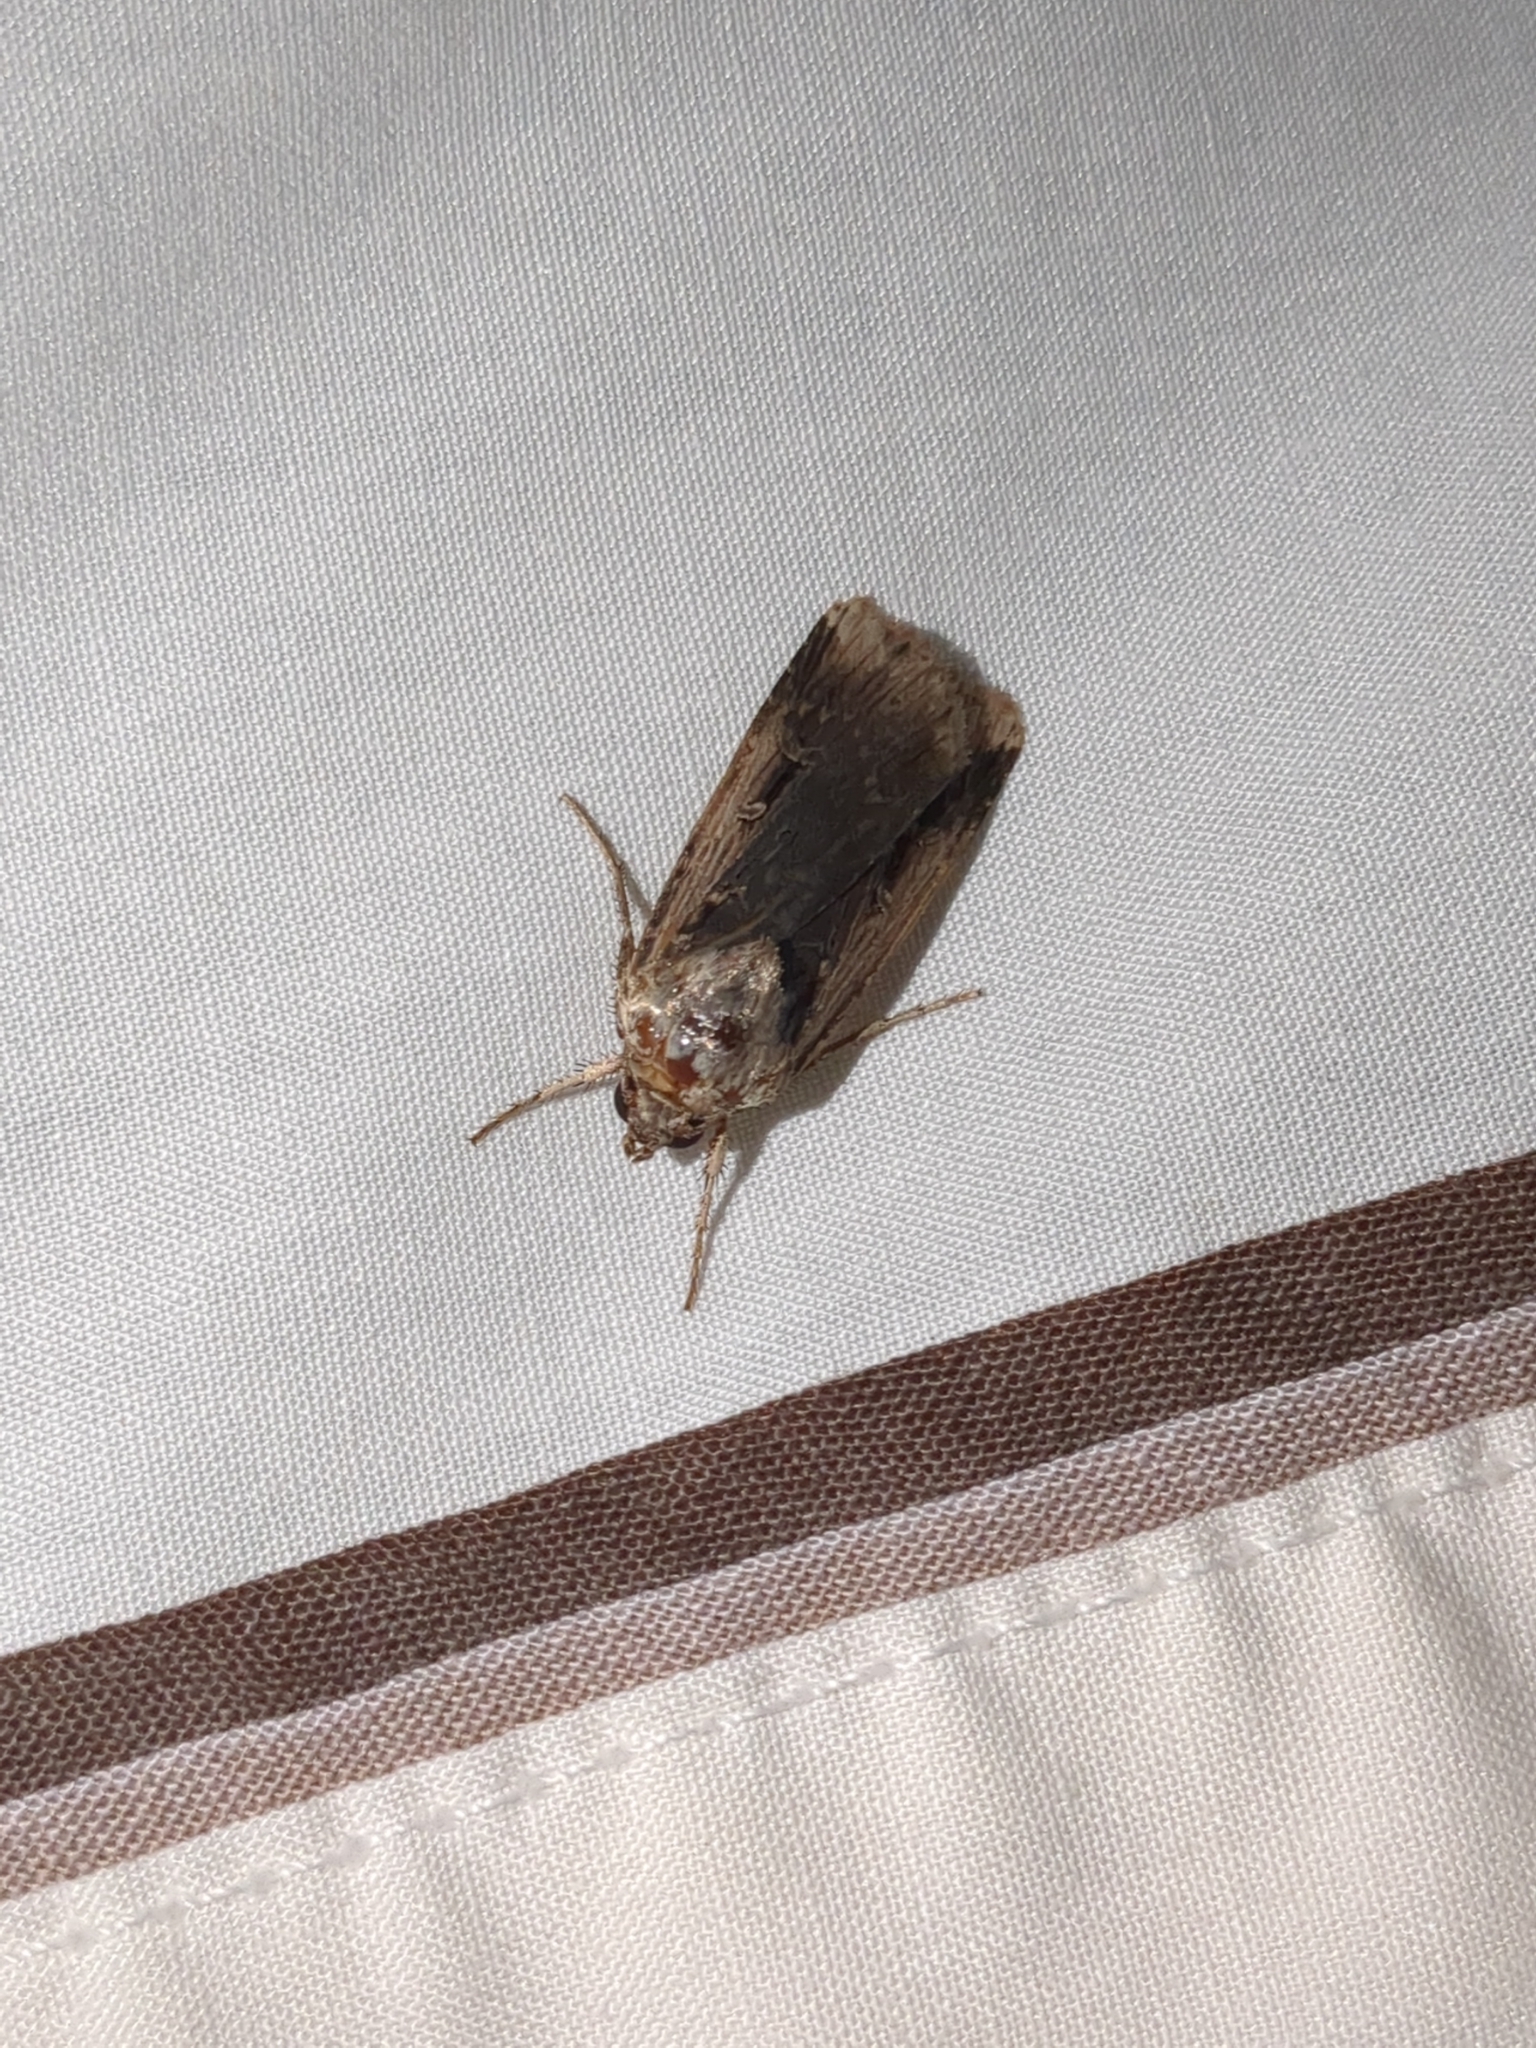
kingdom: Animalia
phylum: Arthropoda
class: Insecta
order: Lepidoptera
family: Noctuidae
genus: Feltia
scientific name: Feltia subterranea
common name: Granulate cutworm
